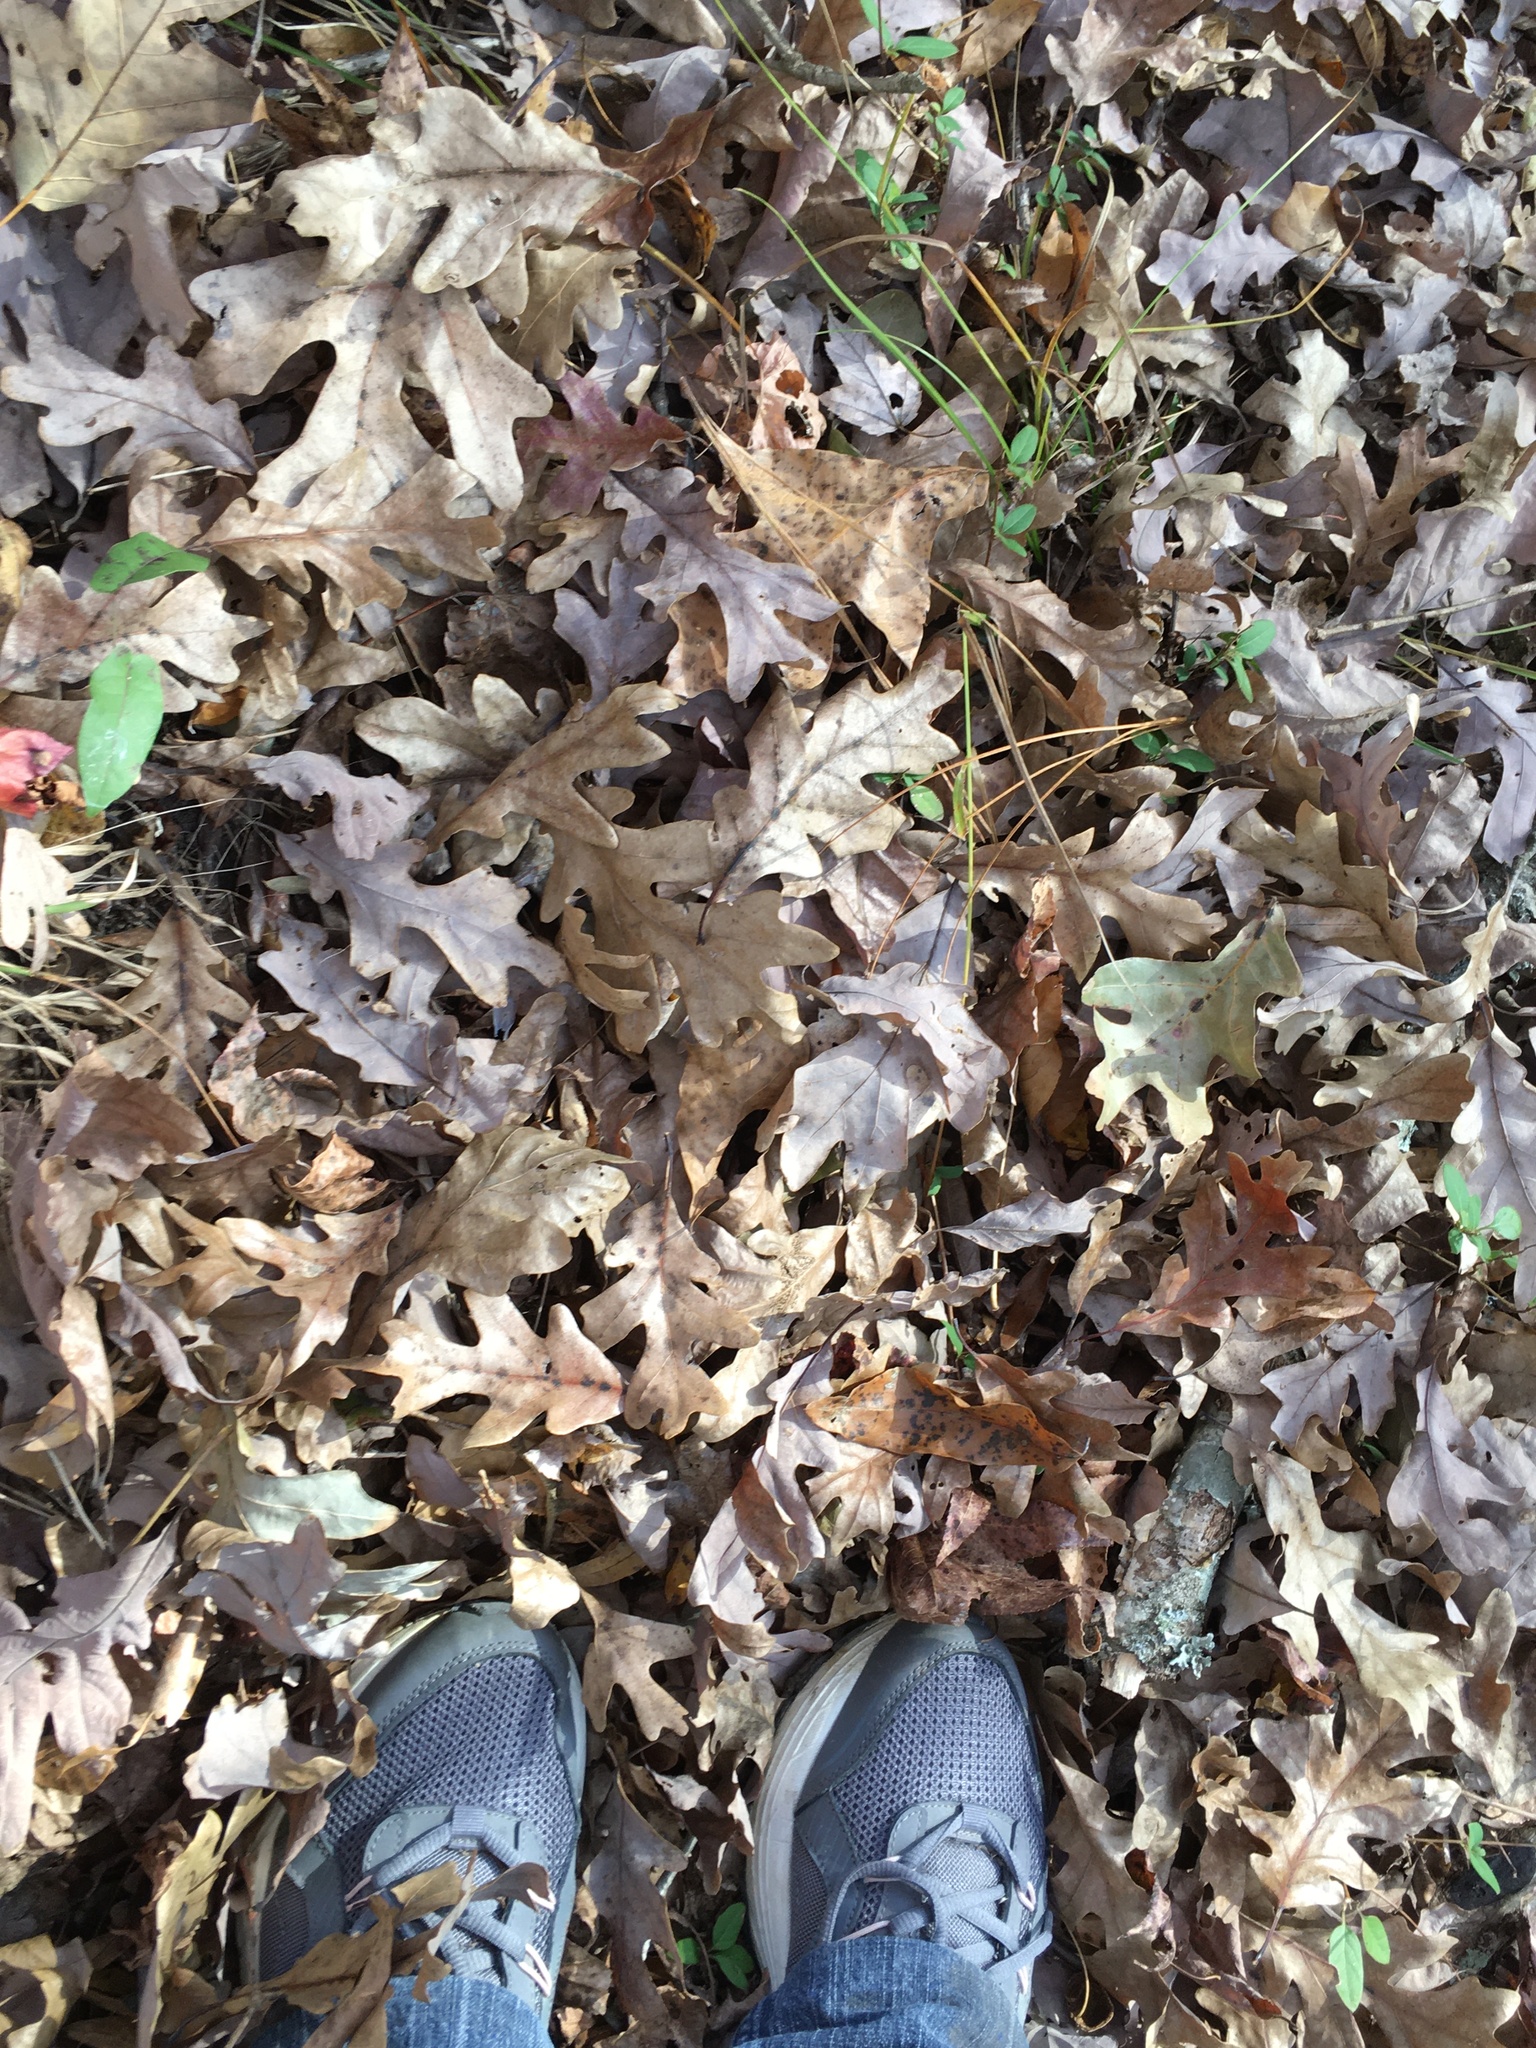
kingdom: Plantae
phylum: Tracheophyta
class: Magnoliopsida
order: Fagales
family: Fagaceae
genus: Quercus
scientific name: Quercus alba
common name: White oak
